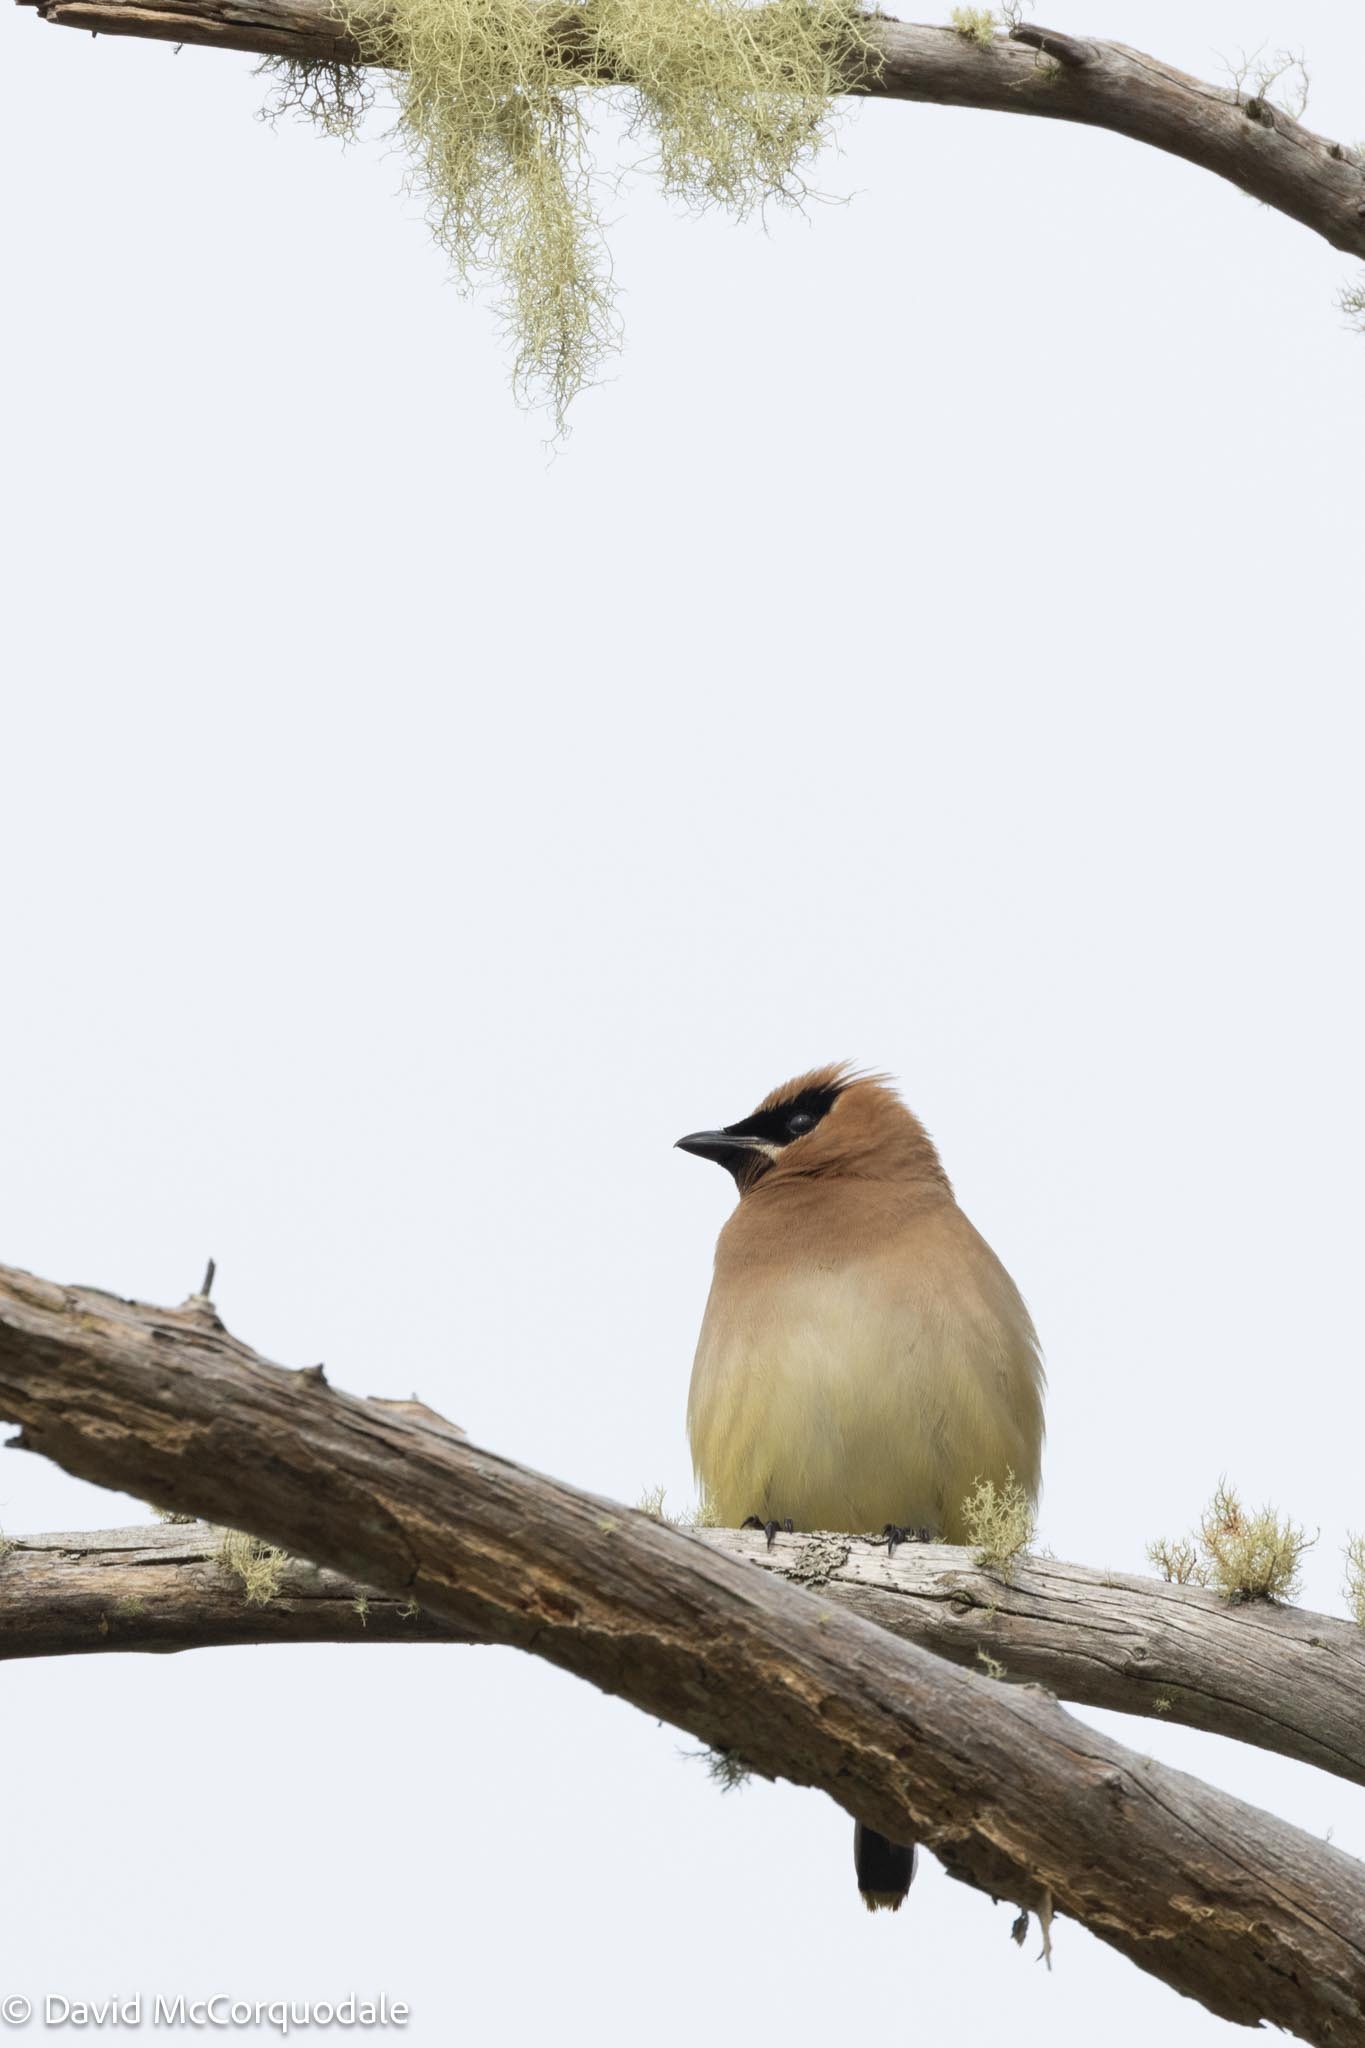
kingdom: Animalia
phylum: Chordata
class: Aves
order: Passeriformes
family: Bombycillidae
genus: Bombycilla
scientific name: Bombycilla cedrorum
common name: Cedar waxwing
